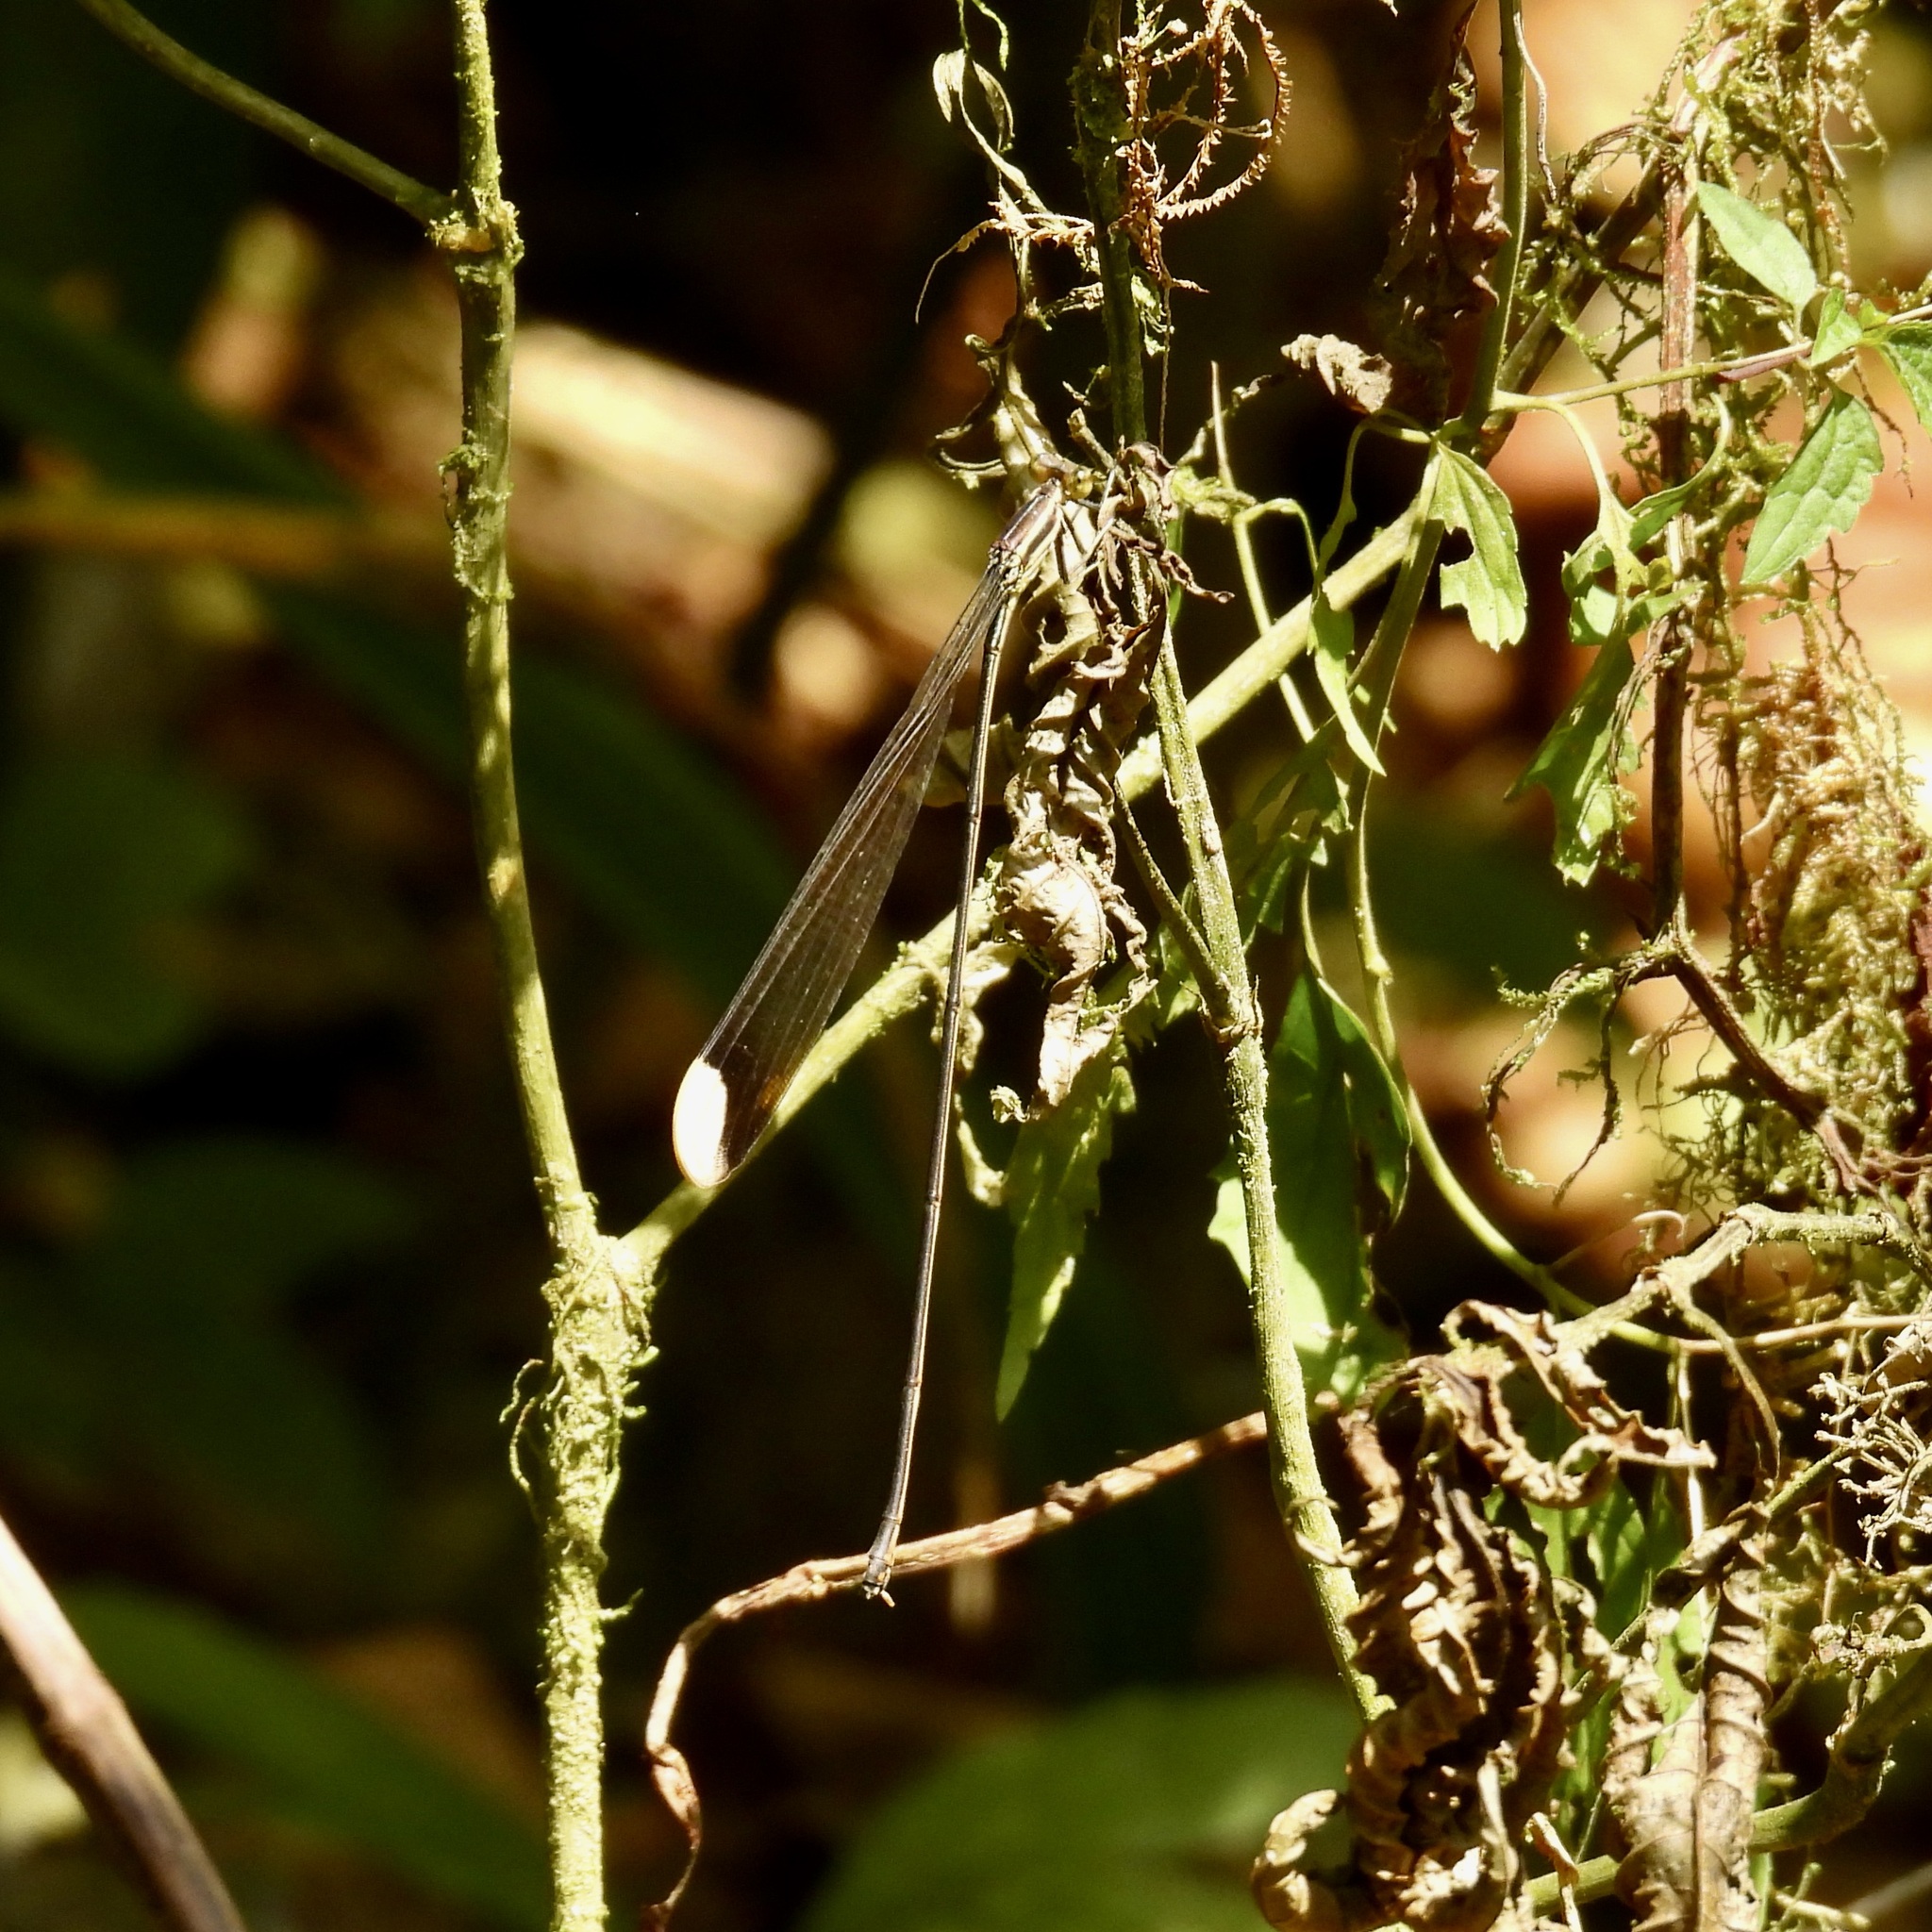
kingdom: Animalia
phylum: Arthropoda
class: Insecta
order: Odonata
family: Coenagrionidae
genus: Mecistogaster
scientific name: Mecistogaster ornata
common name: Ornate helicopter
